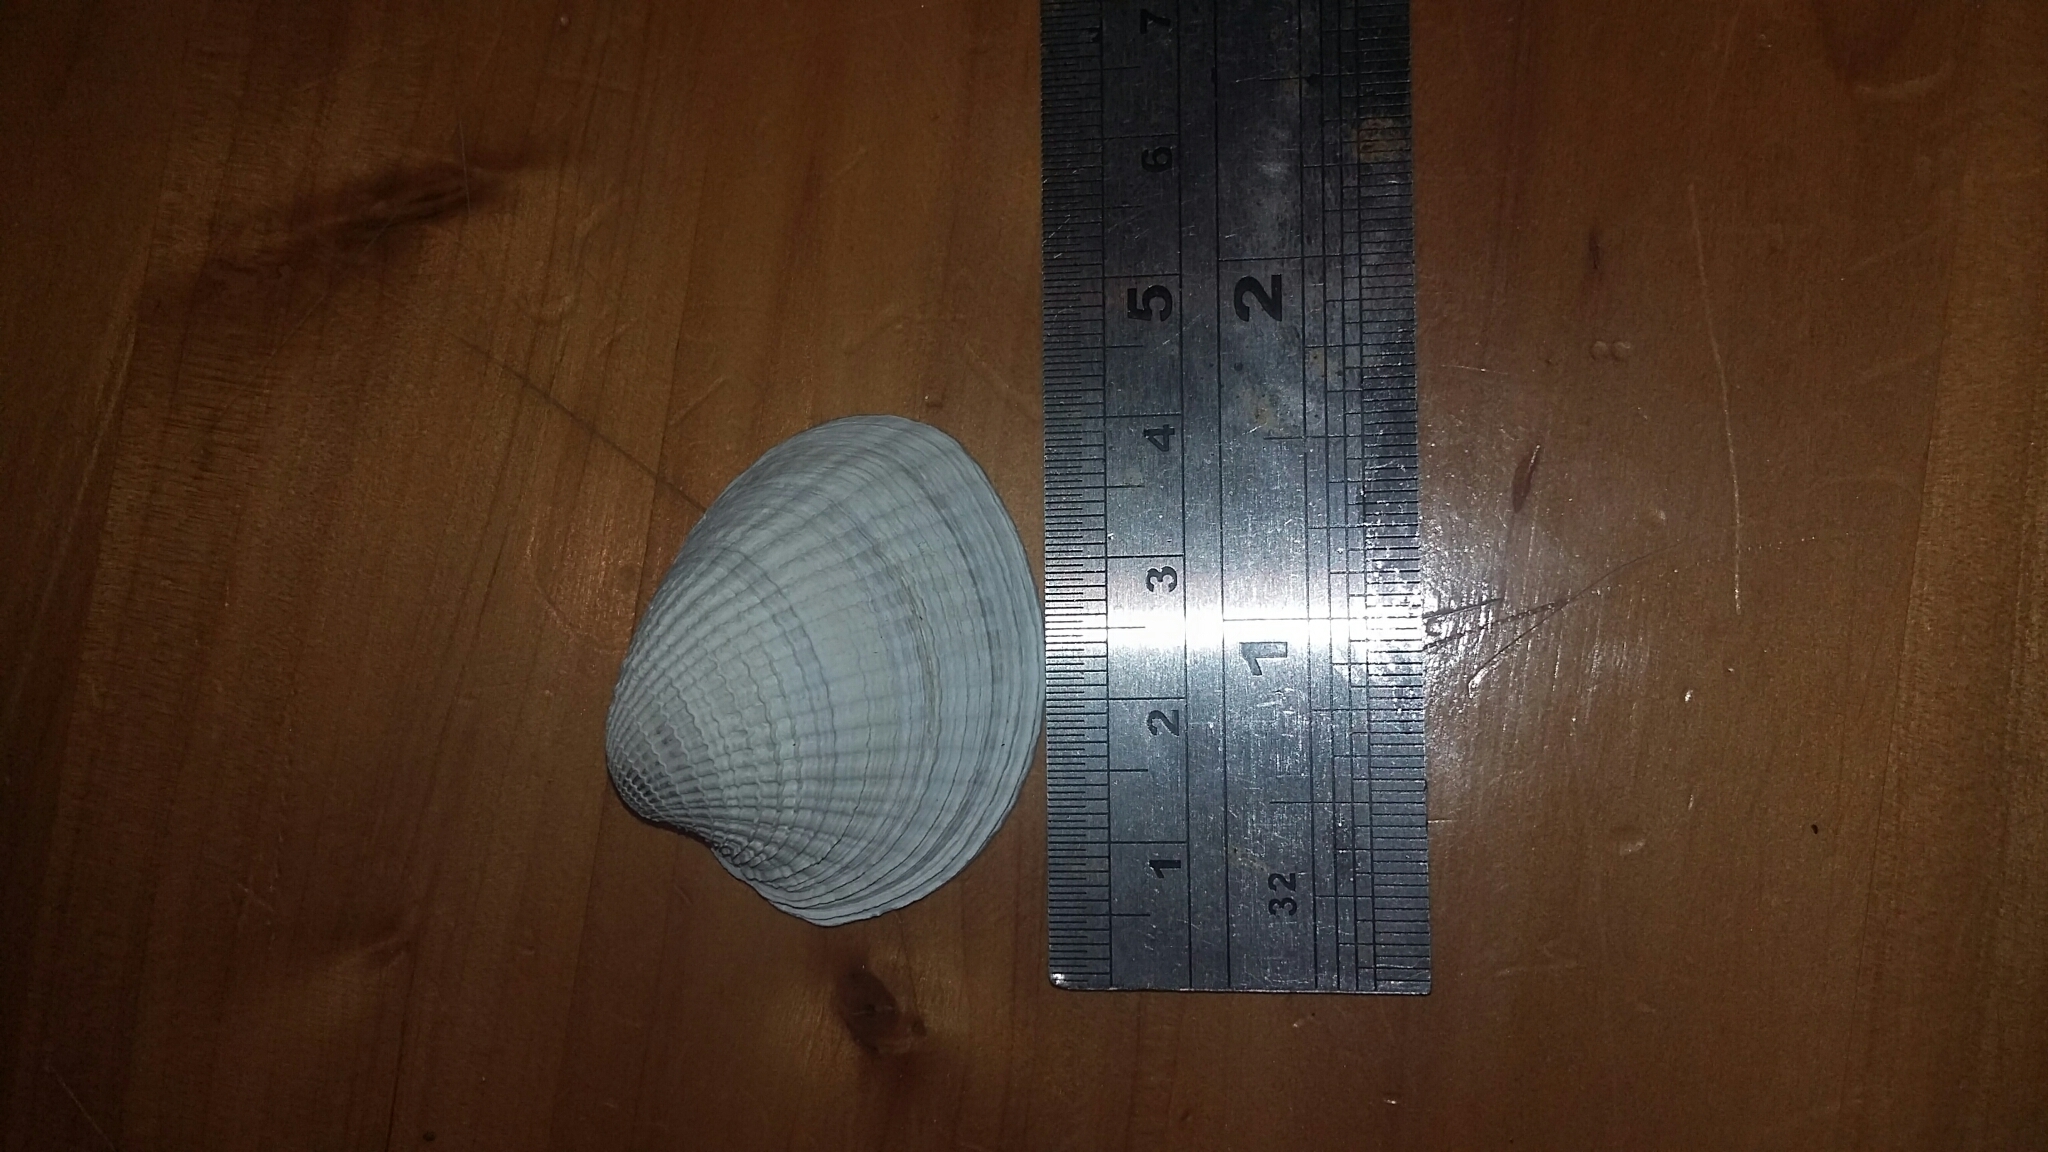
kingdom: Animalia
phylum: Mollusca
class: Bivalvia
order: Venerida
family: Veneridae
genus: Austrovenus
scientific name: Austrovenus stutchburyi
